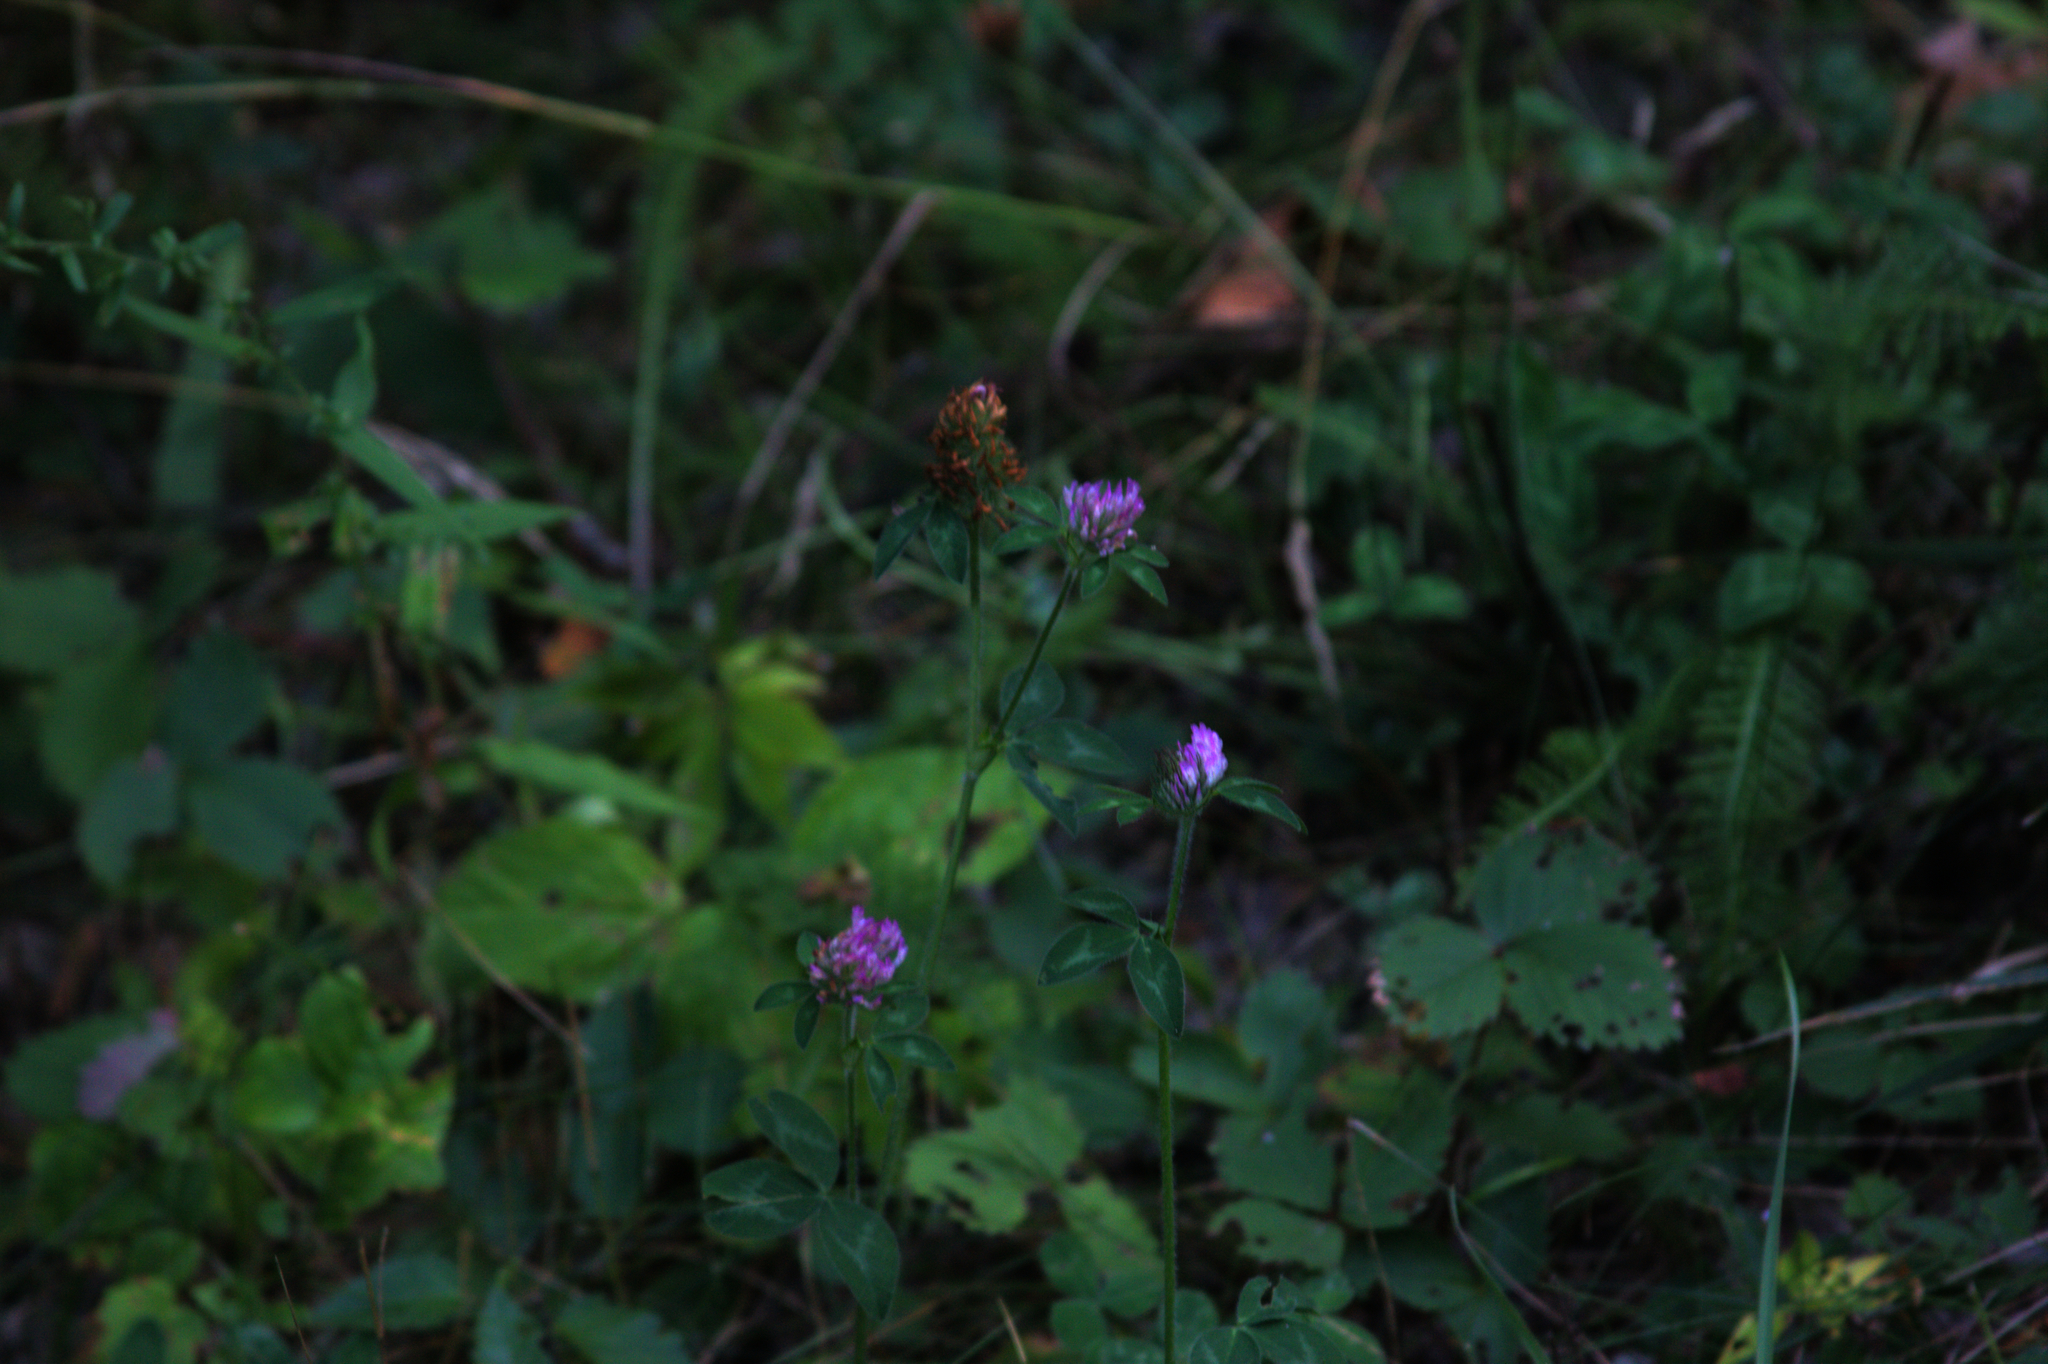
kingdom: Plantae
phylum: Tracheophyta
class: Magnoliopsida
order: Fabales
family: Fabaceae
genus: Trifolium
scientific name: Trifolium pratense
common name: Red clover
